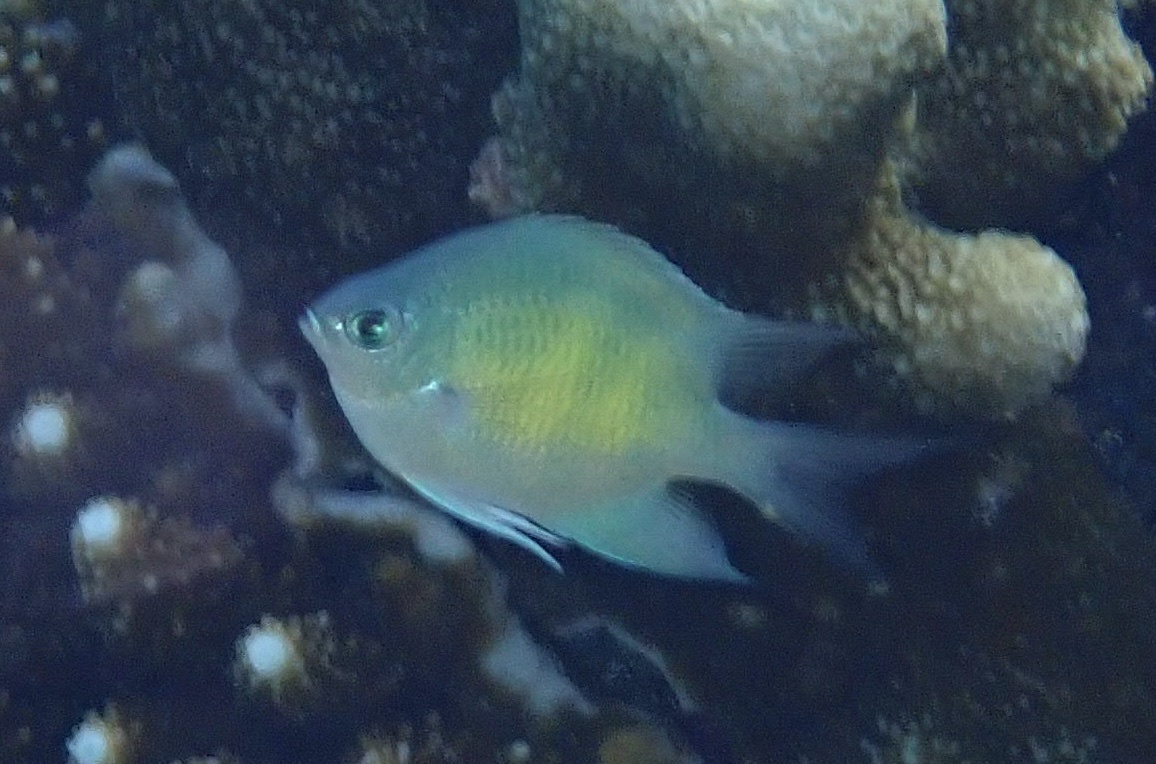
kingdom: Animalia
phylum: Chordata
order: Perciformes
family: Pomacentridae
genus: Amblyglyphidodon
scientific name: Amblyglyphidodon curacao
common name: Staghorn damsel
